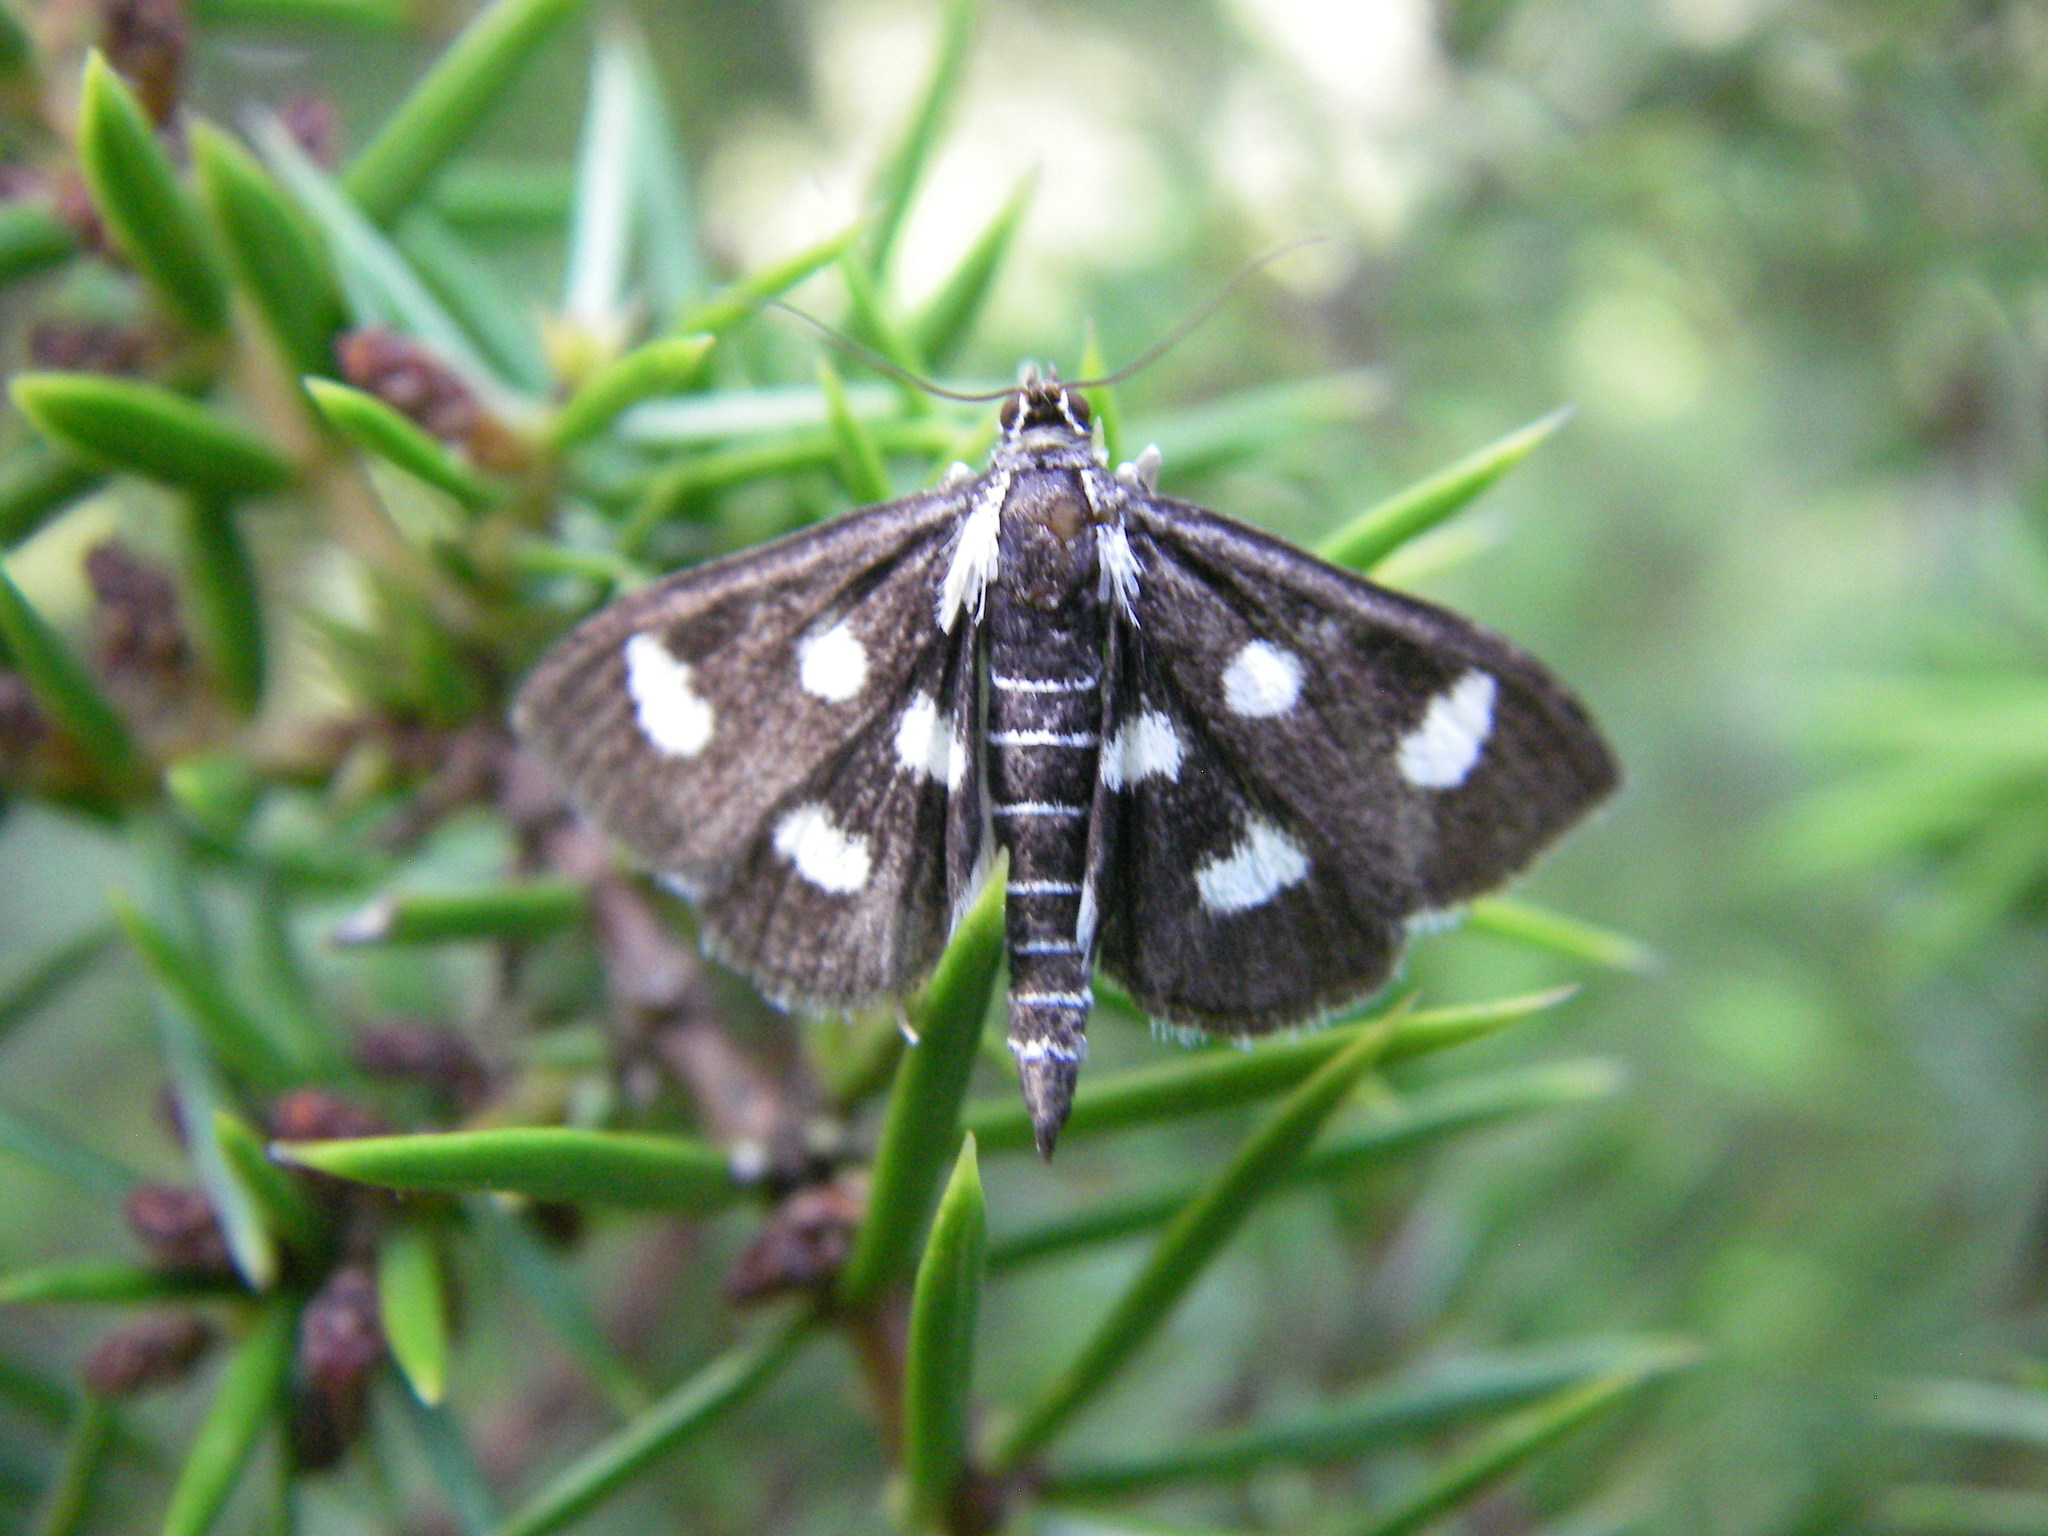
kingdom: Animalia
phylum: Arthropoda
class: Insecta
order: Lepidoptera
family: Crambidae
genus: Anania
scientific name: Anania funebris
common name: White-spotted sable moth
